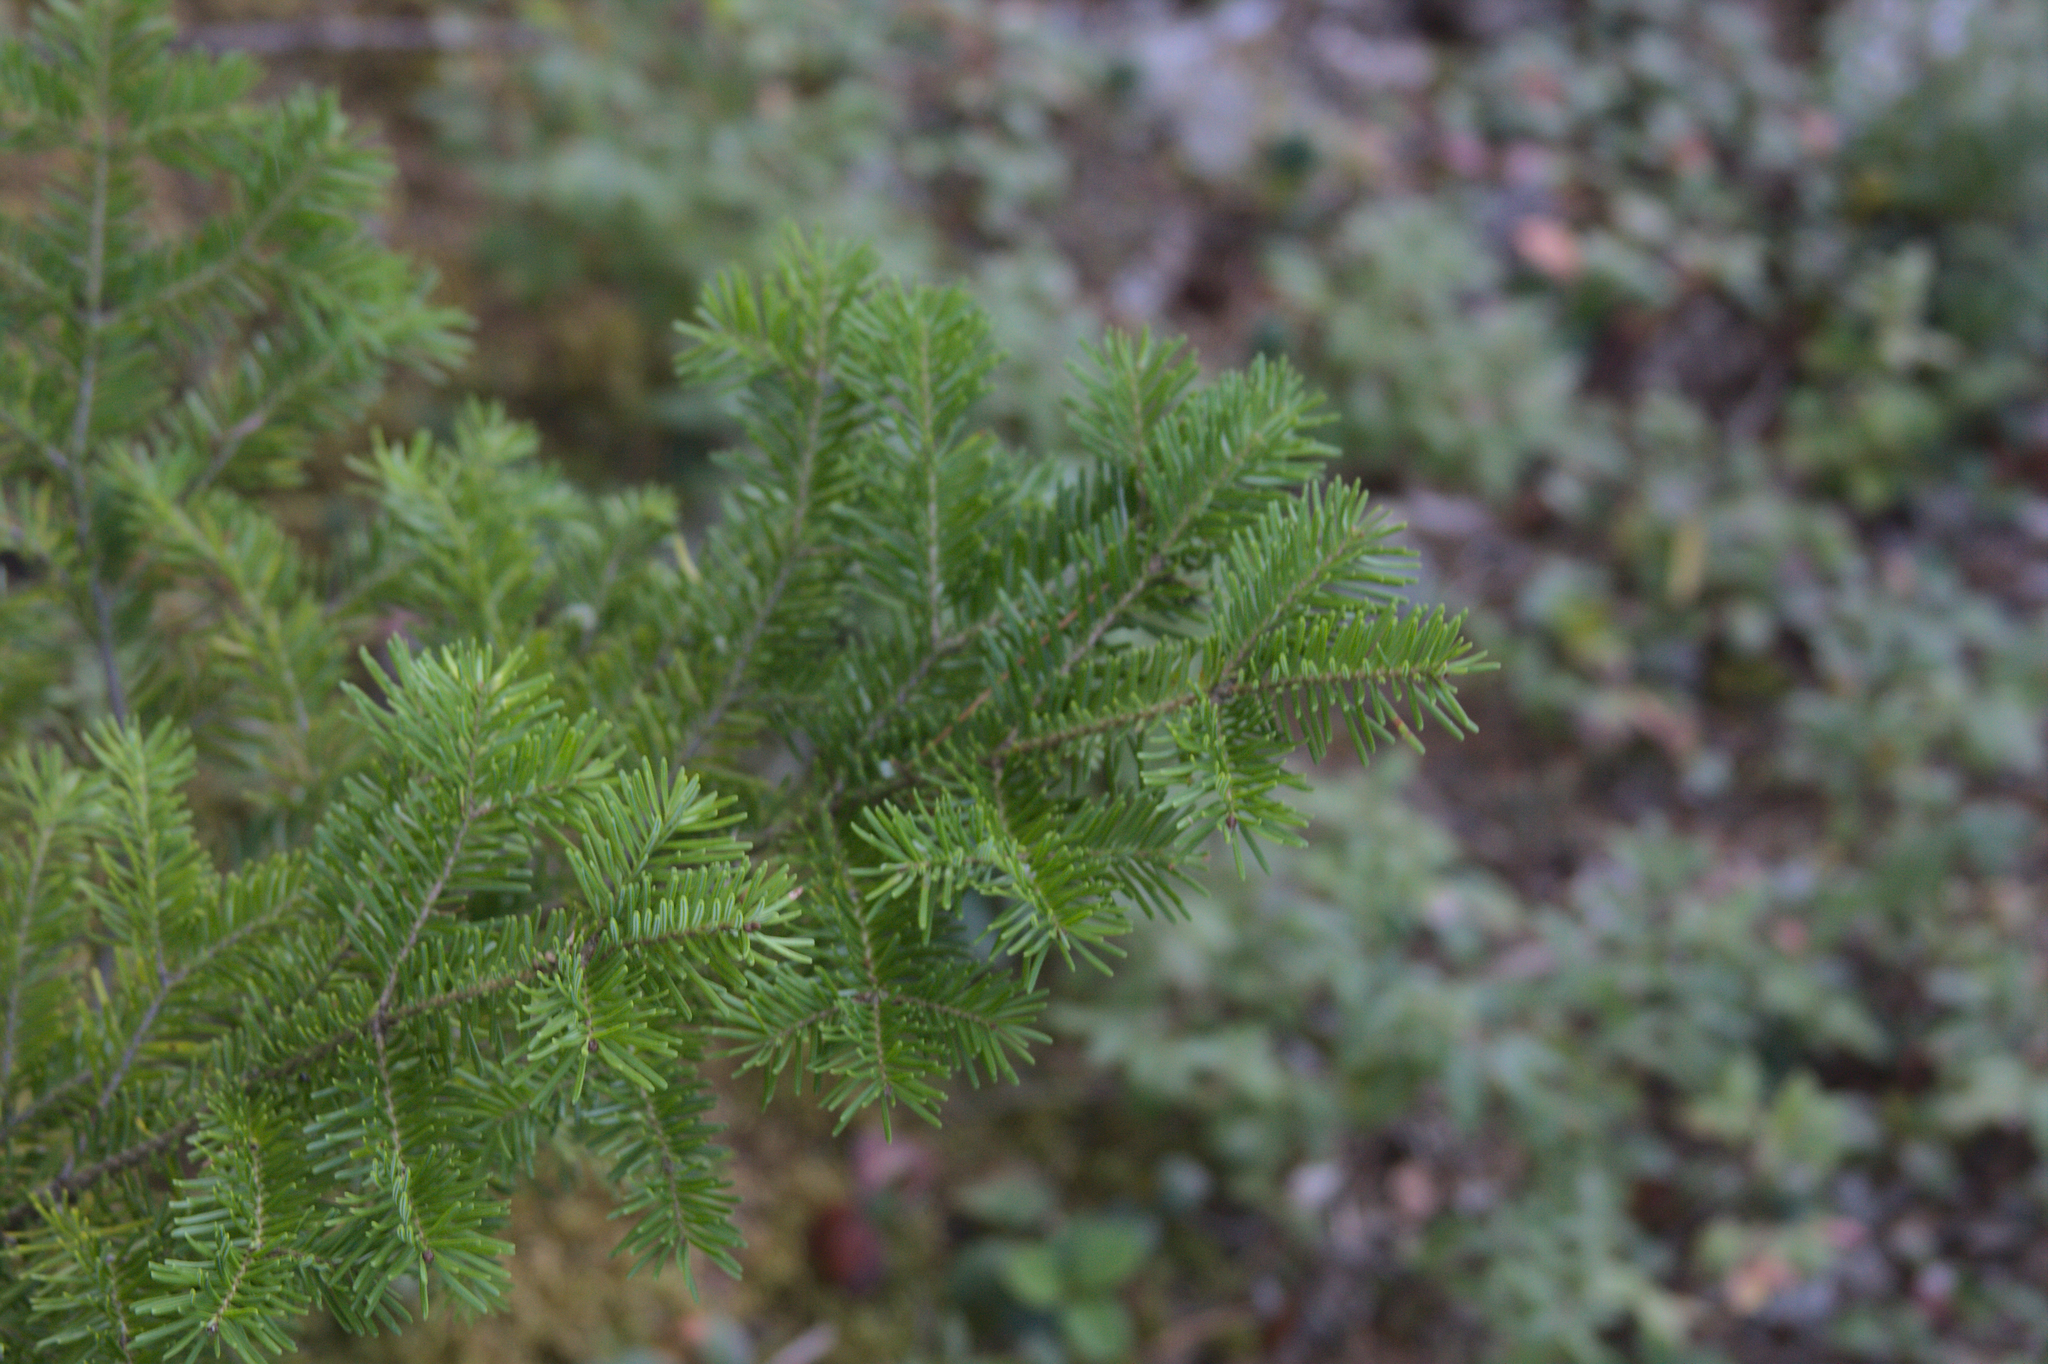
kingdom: Plantae
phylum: Tracheophyta
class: Pinopsida
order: Pinales
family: Pinaceae
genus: Abies
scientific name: Abies balsamea
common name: Balsam fir
